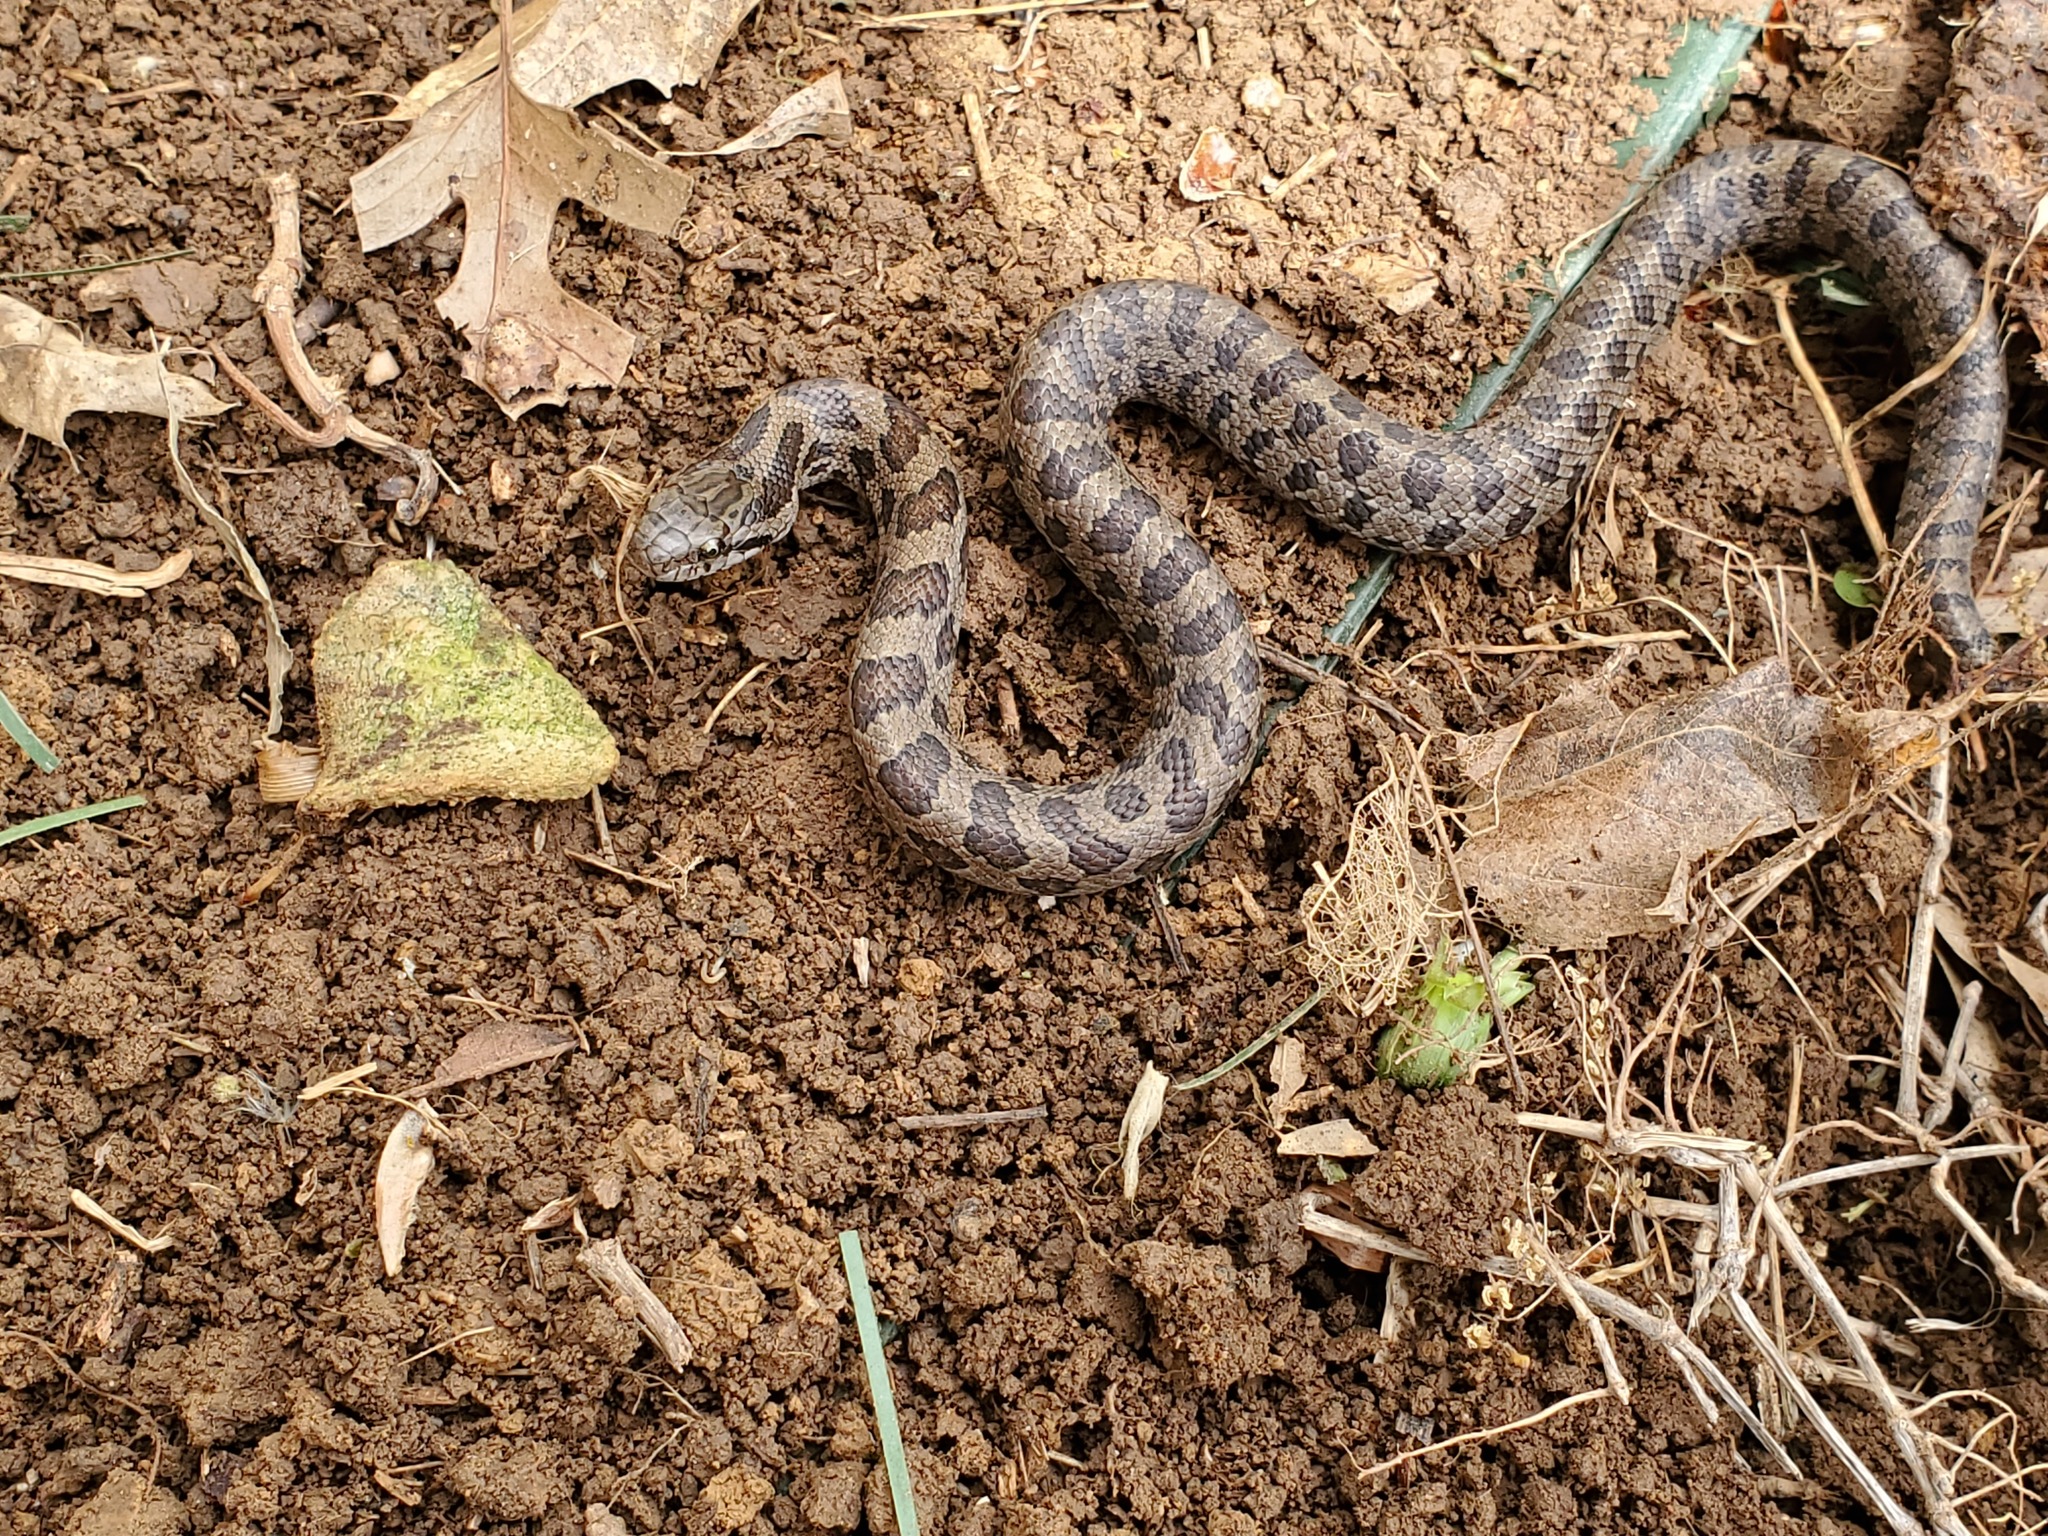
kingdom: Animalia
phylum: Chordata
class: Squamata
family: Colubridae
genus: Lampropeltis
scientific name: Lampropeltis calligaster
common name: Prairie kingsnake
